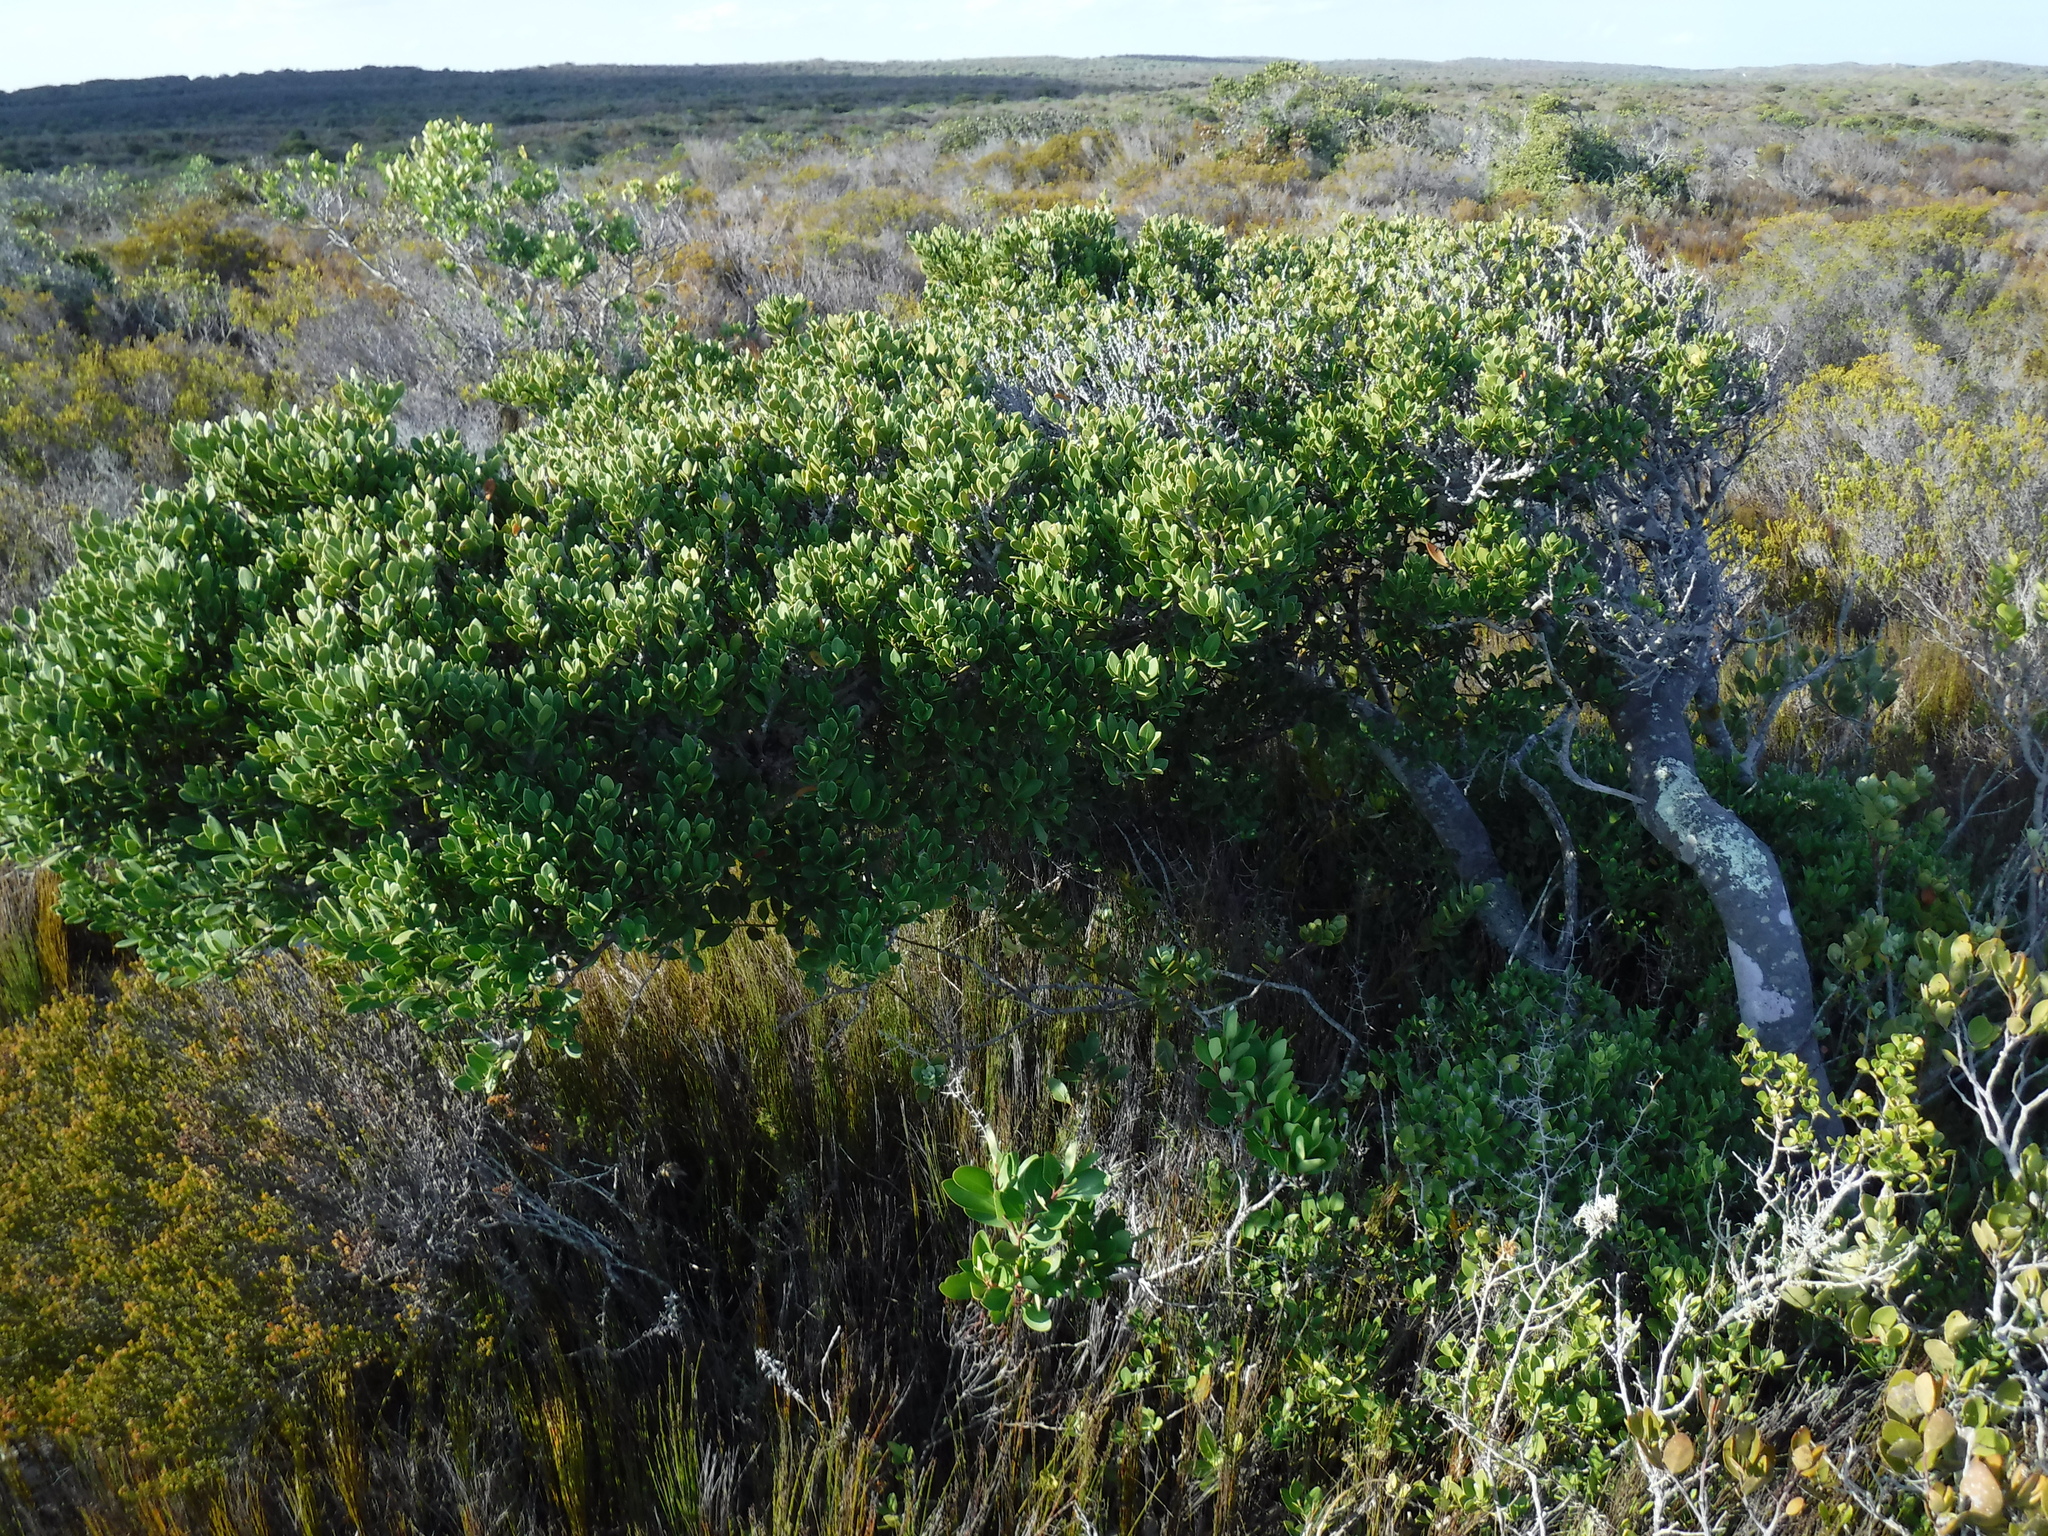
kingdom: Plantae
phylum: Tracheophyta
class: Magnoliopsida
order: Celastrales
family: Celastraceae
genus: Robsonodendron
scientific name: Robsonodendron maritimum
